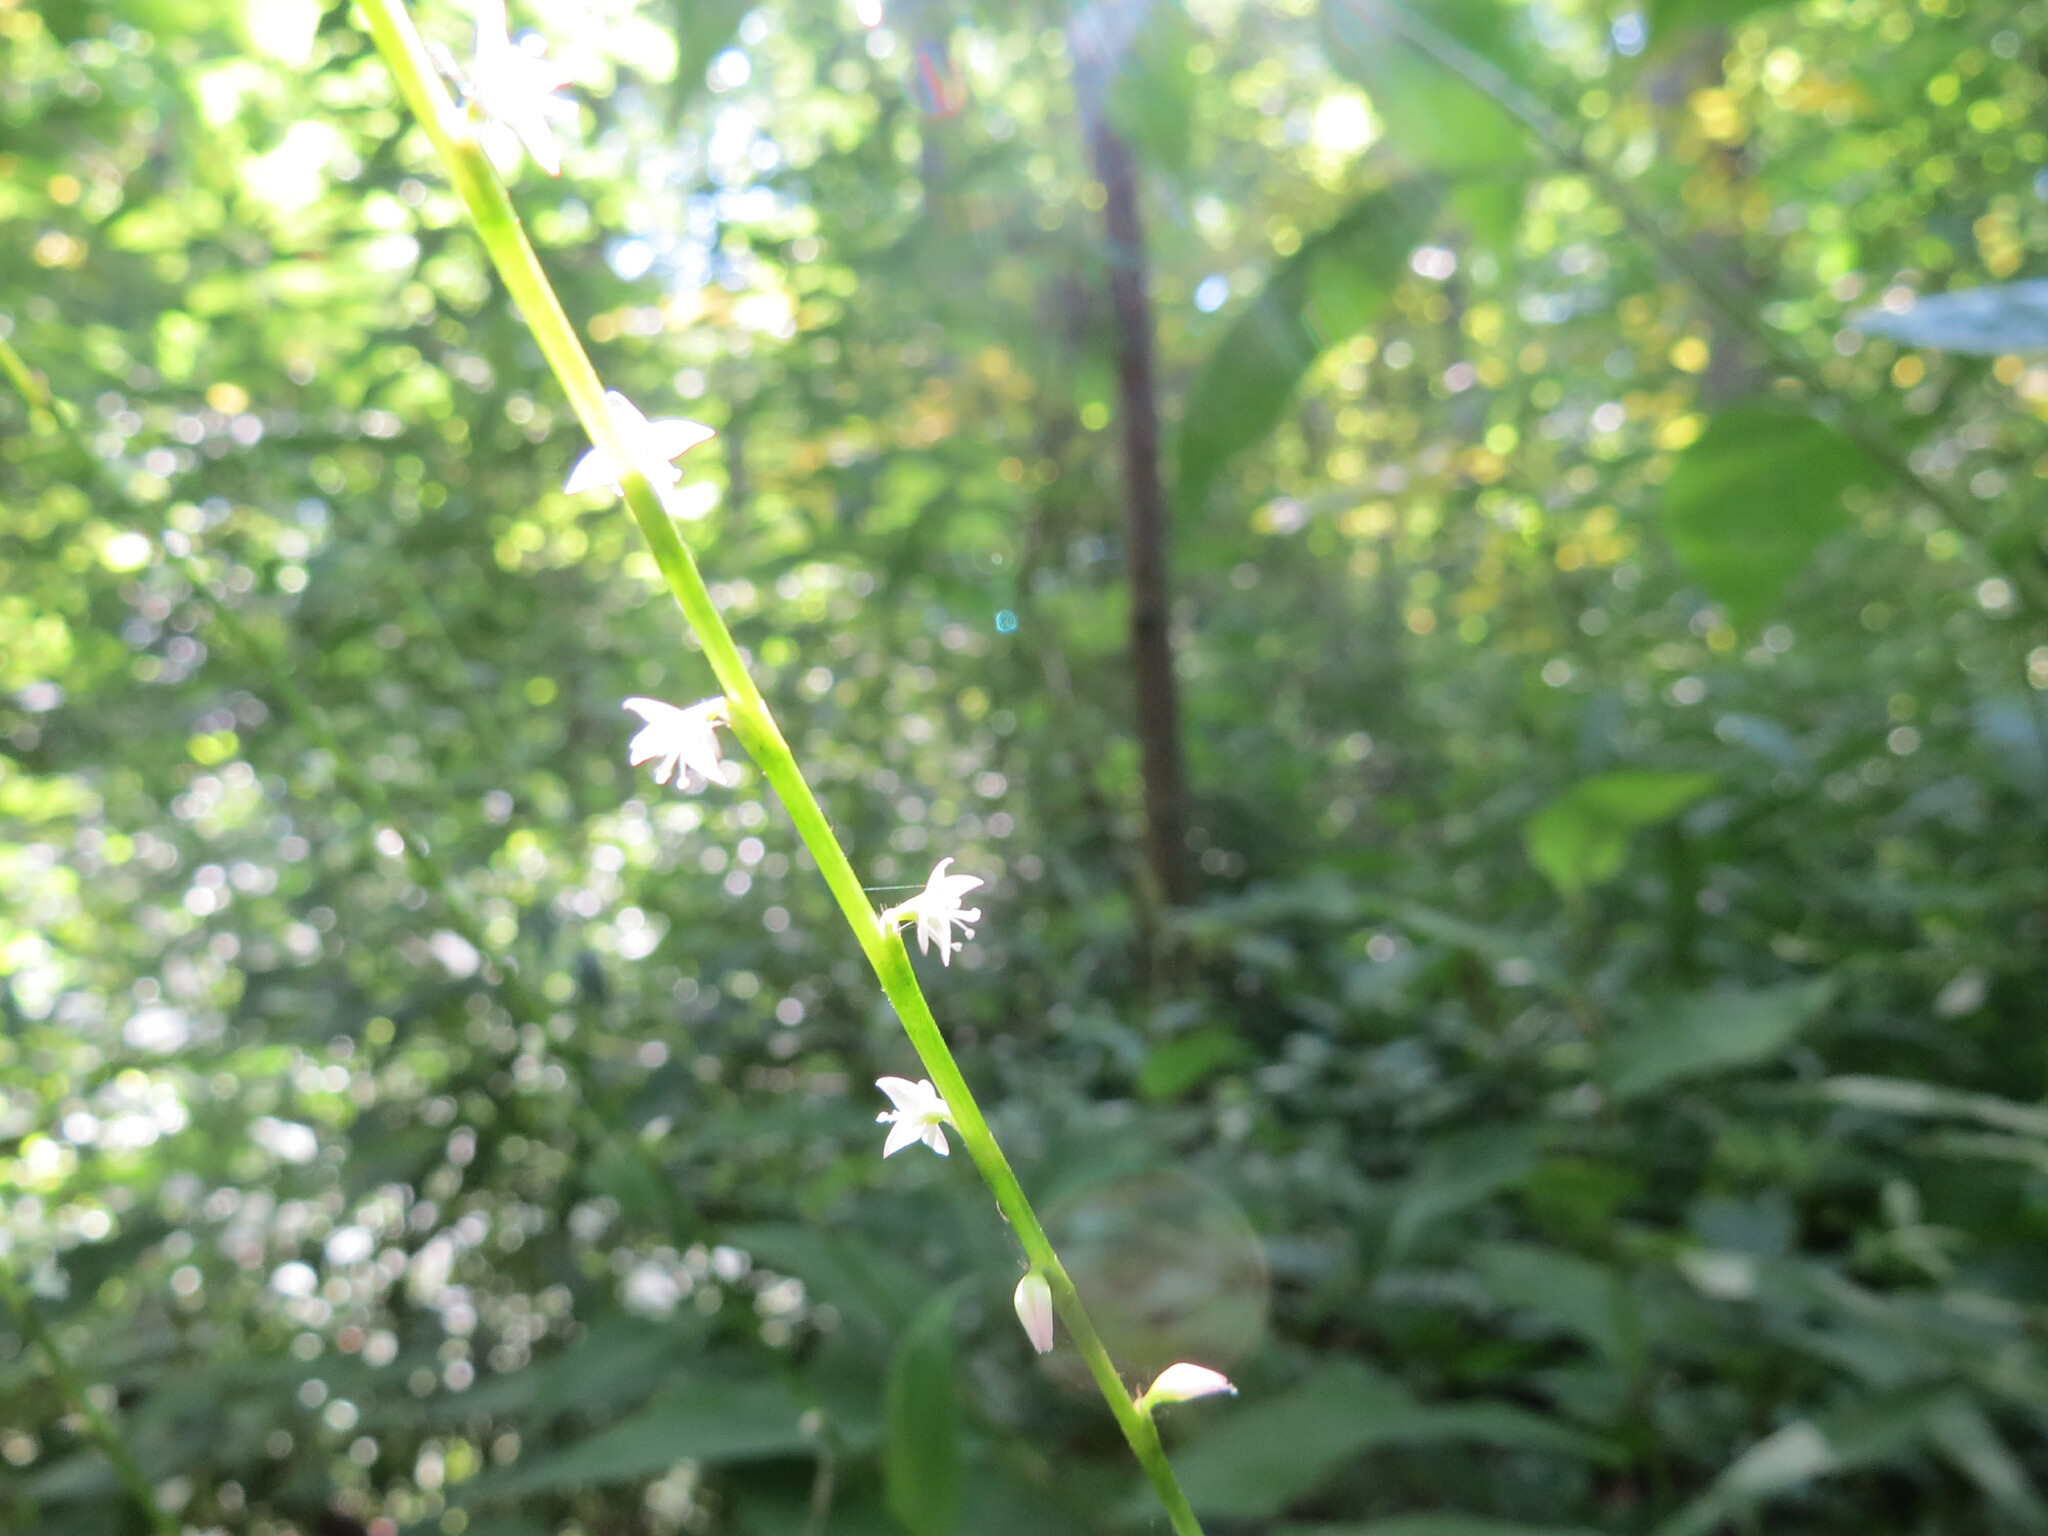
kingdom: Plantae
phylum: Tracheophyta
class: Magnoliopsida
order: Caryophyllales
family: Polygonaceae
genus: Persicaria
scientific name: Persicaria virginiana
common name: Jumpseed
